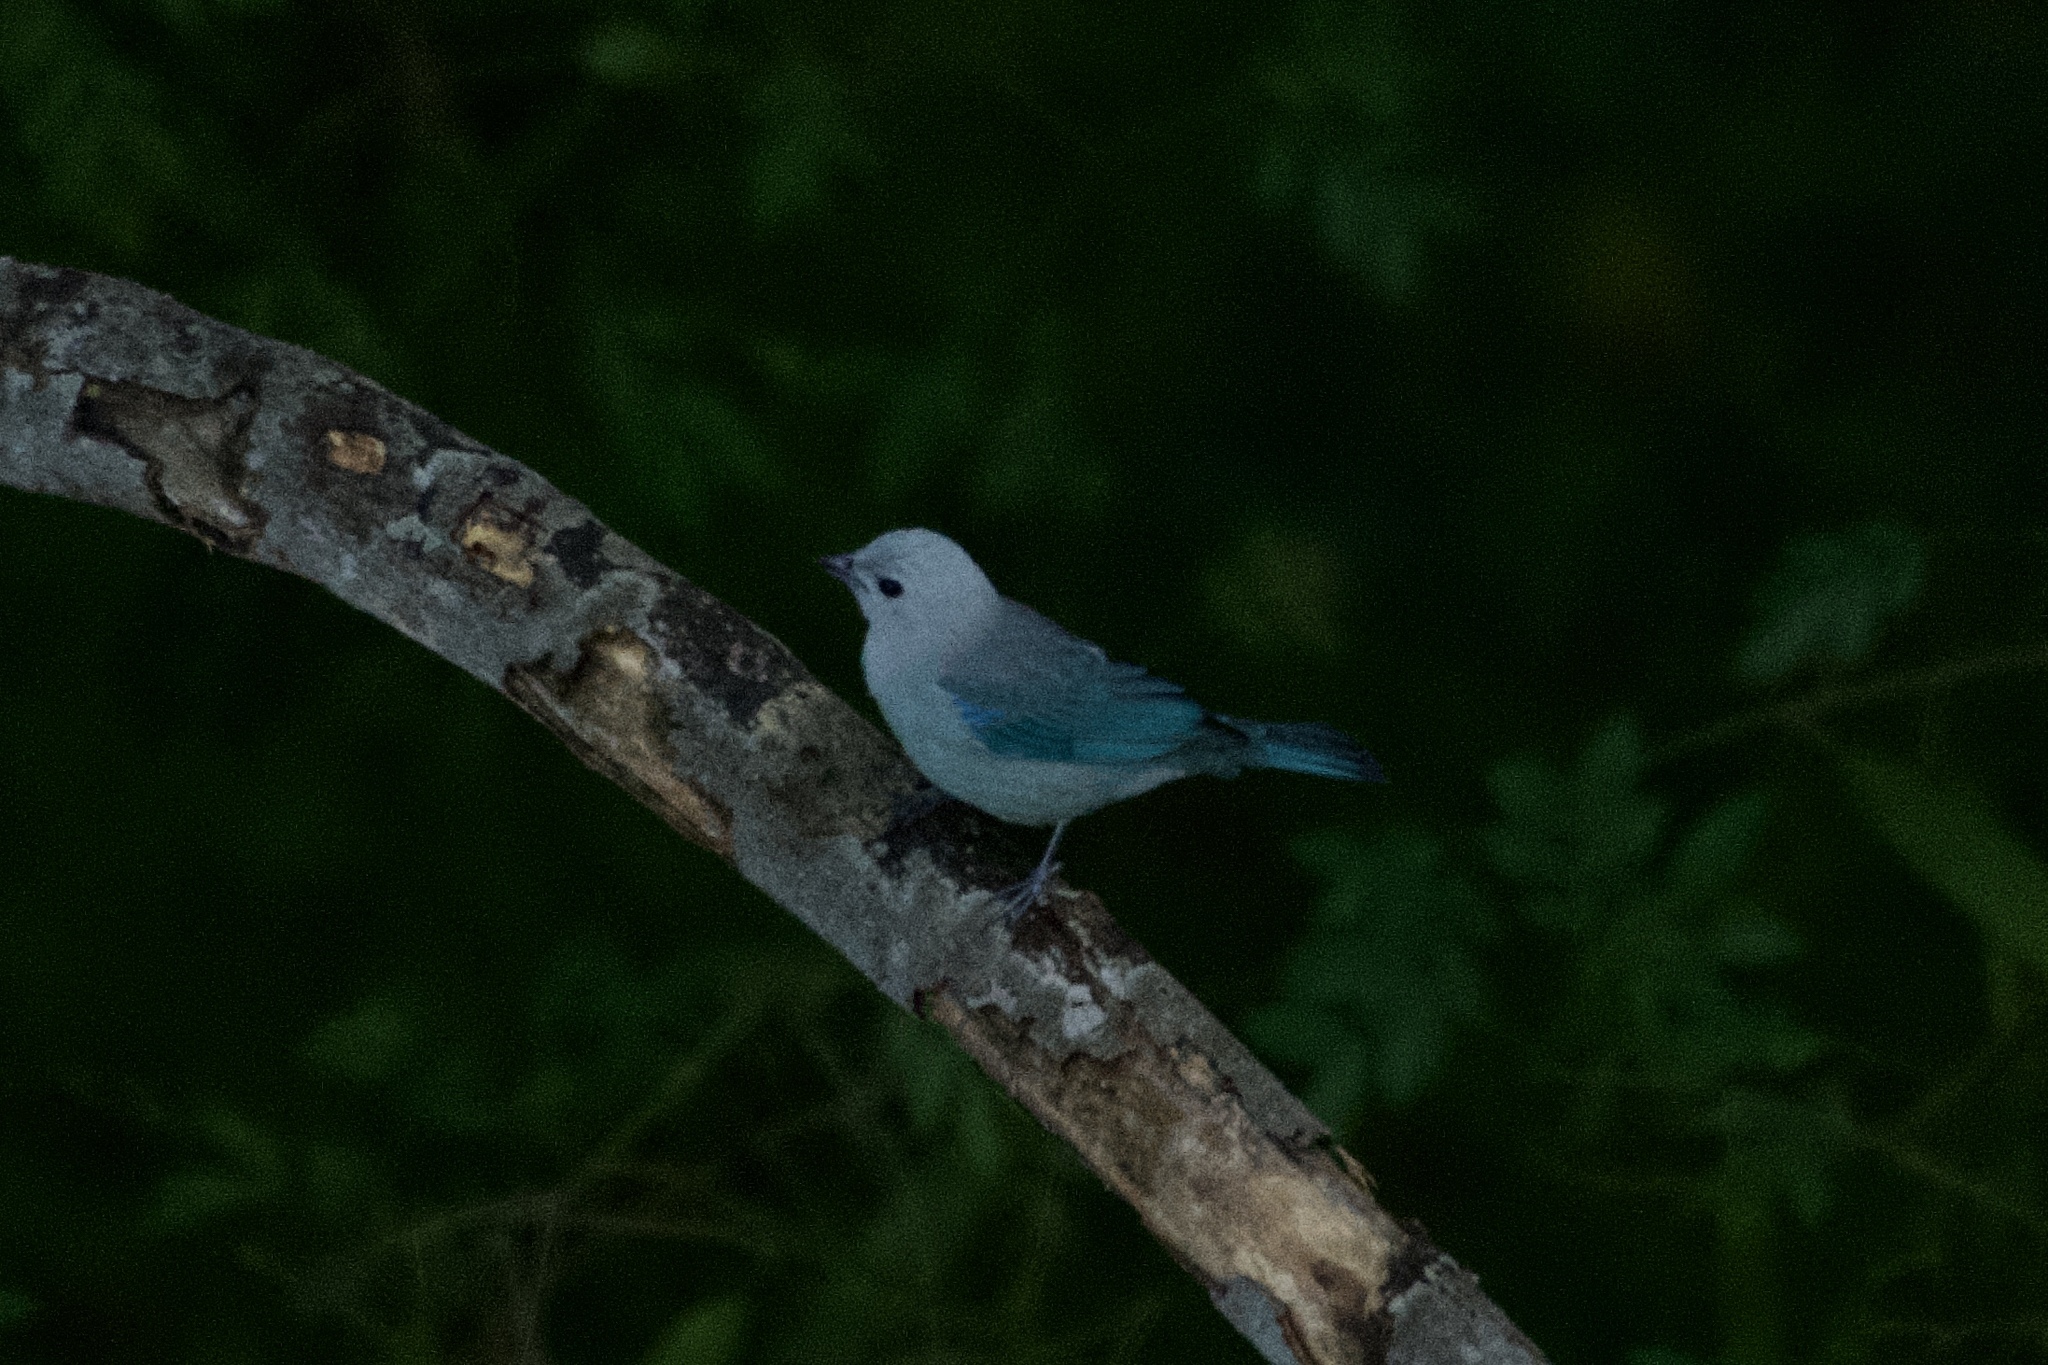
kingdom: Animalia
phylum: Chordata
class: Aves
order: Passeriformes
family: Thraupidae
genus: Thraupis
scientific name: Thraupis episcopus
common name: Blue-grey tanager
